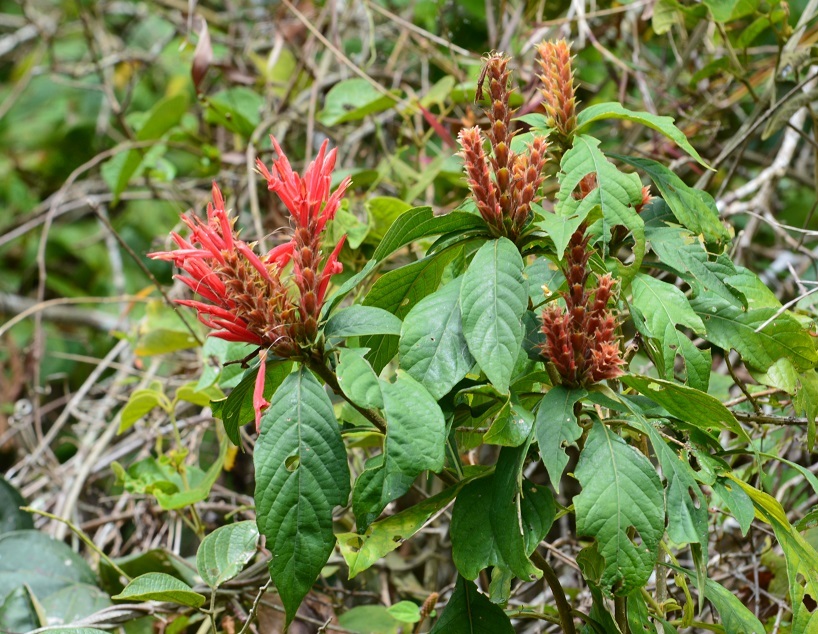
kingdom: Plantae
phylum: Tracheophyta
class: Magnoliopsida
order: Lamiales
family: Acanthaceae
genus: Aphelandra
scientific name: Aphelandra scabra
